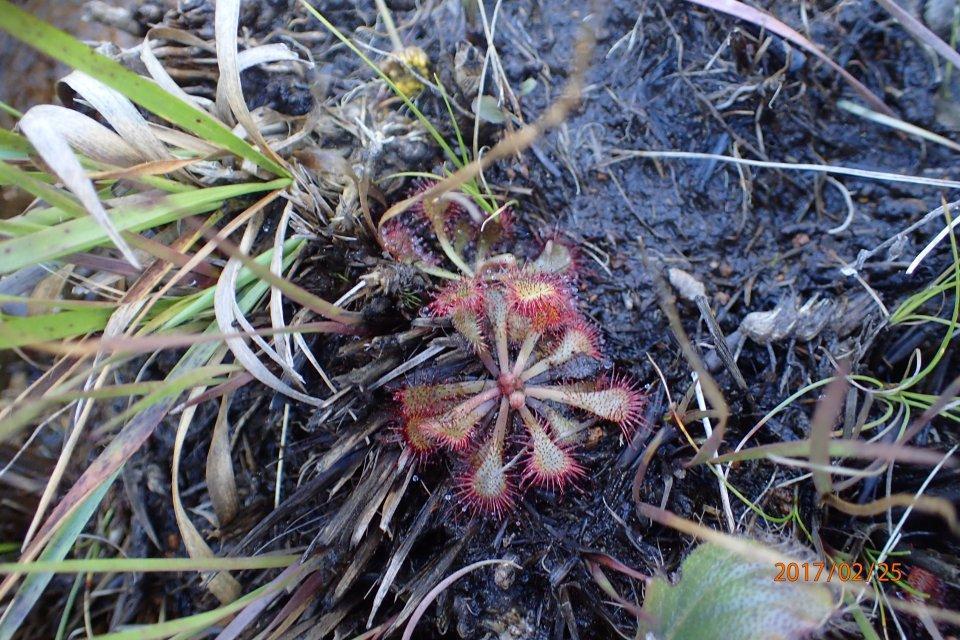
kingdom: Plantae
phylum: Tracheophyta
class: Magnoliopsida
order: Caryophyllales
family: Droseraceae
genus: Drosera
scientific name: Drosera natalensis
